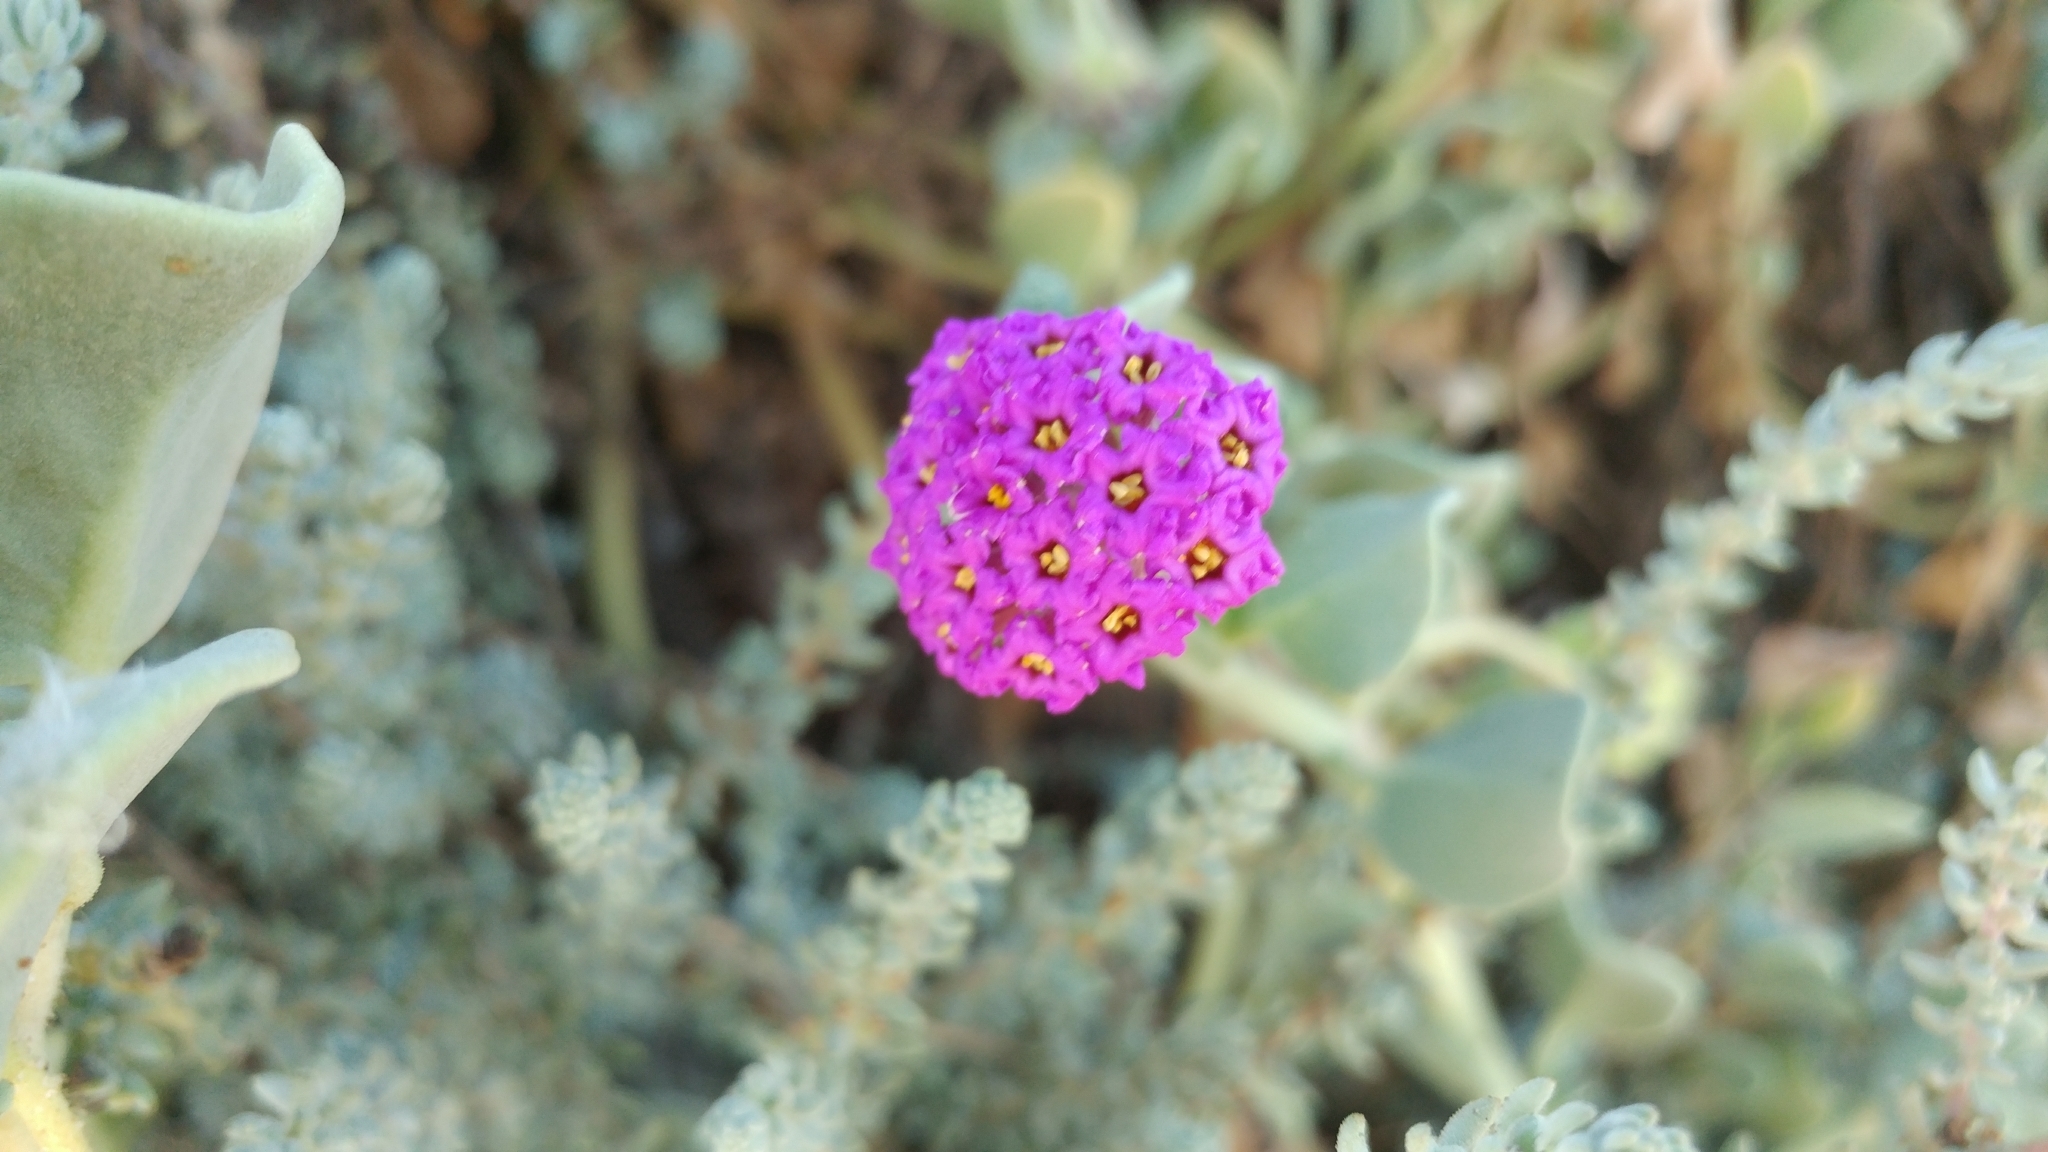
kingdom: Plantae
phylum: Tracheophyta
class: Magnoliopsida
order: Caryophyllales
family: Nyctaginaceae
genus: Abronia
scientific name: Abronia maritima
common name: Red sand-verbena
